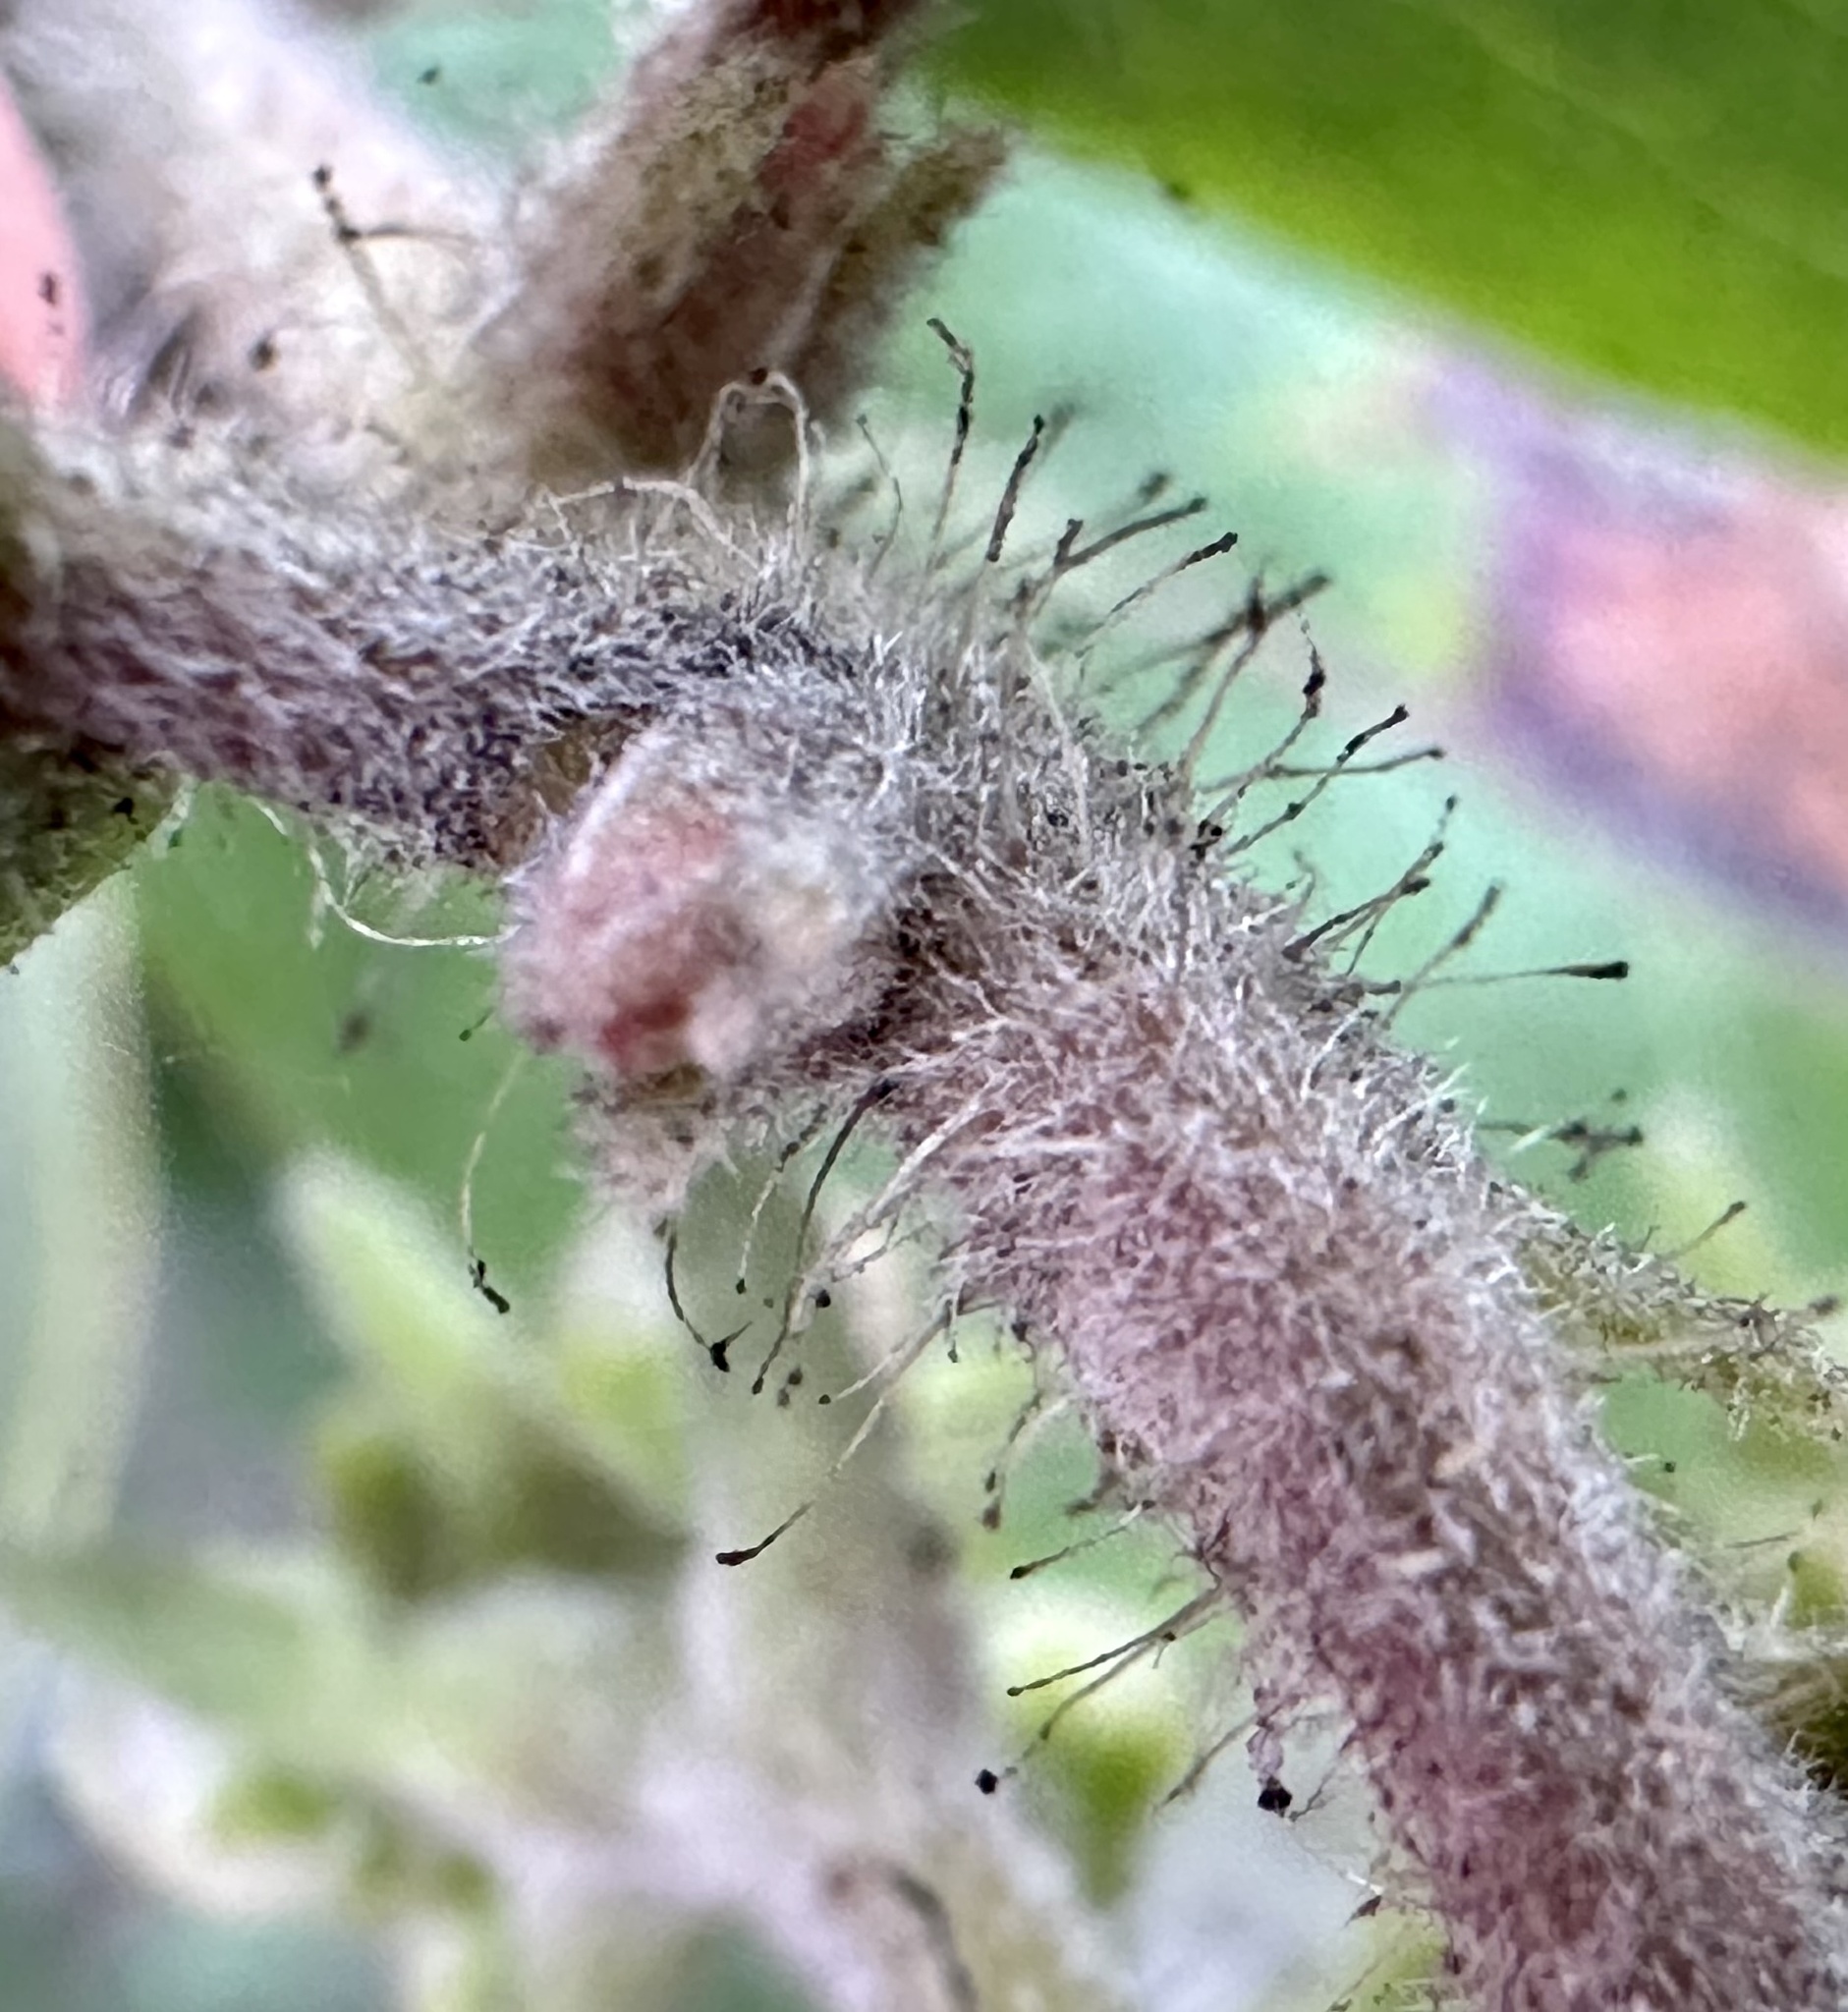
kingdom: Plantae
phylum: Tracheophyta
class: Magnoliopsida
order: Ericales
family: Ericaceae
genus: Arctostaphylos
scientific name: Arctostaphylos tomentosa
